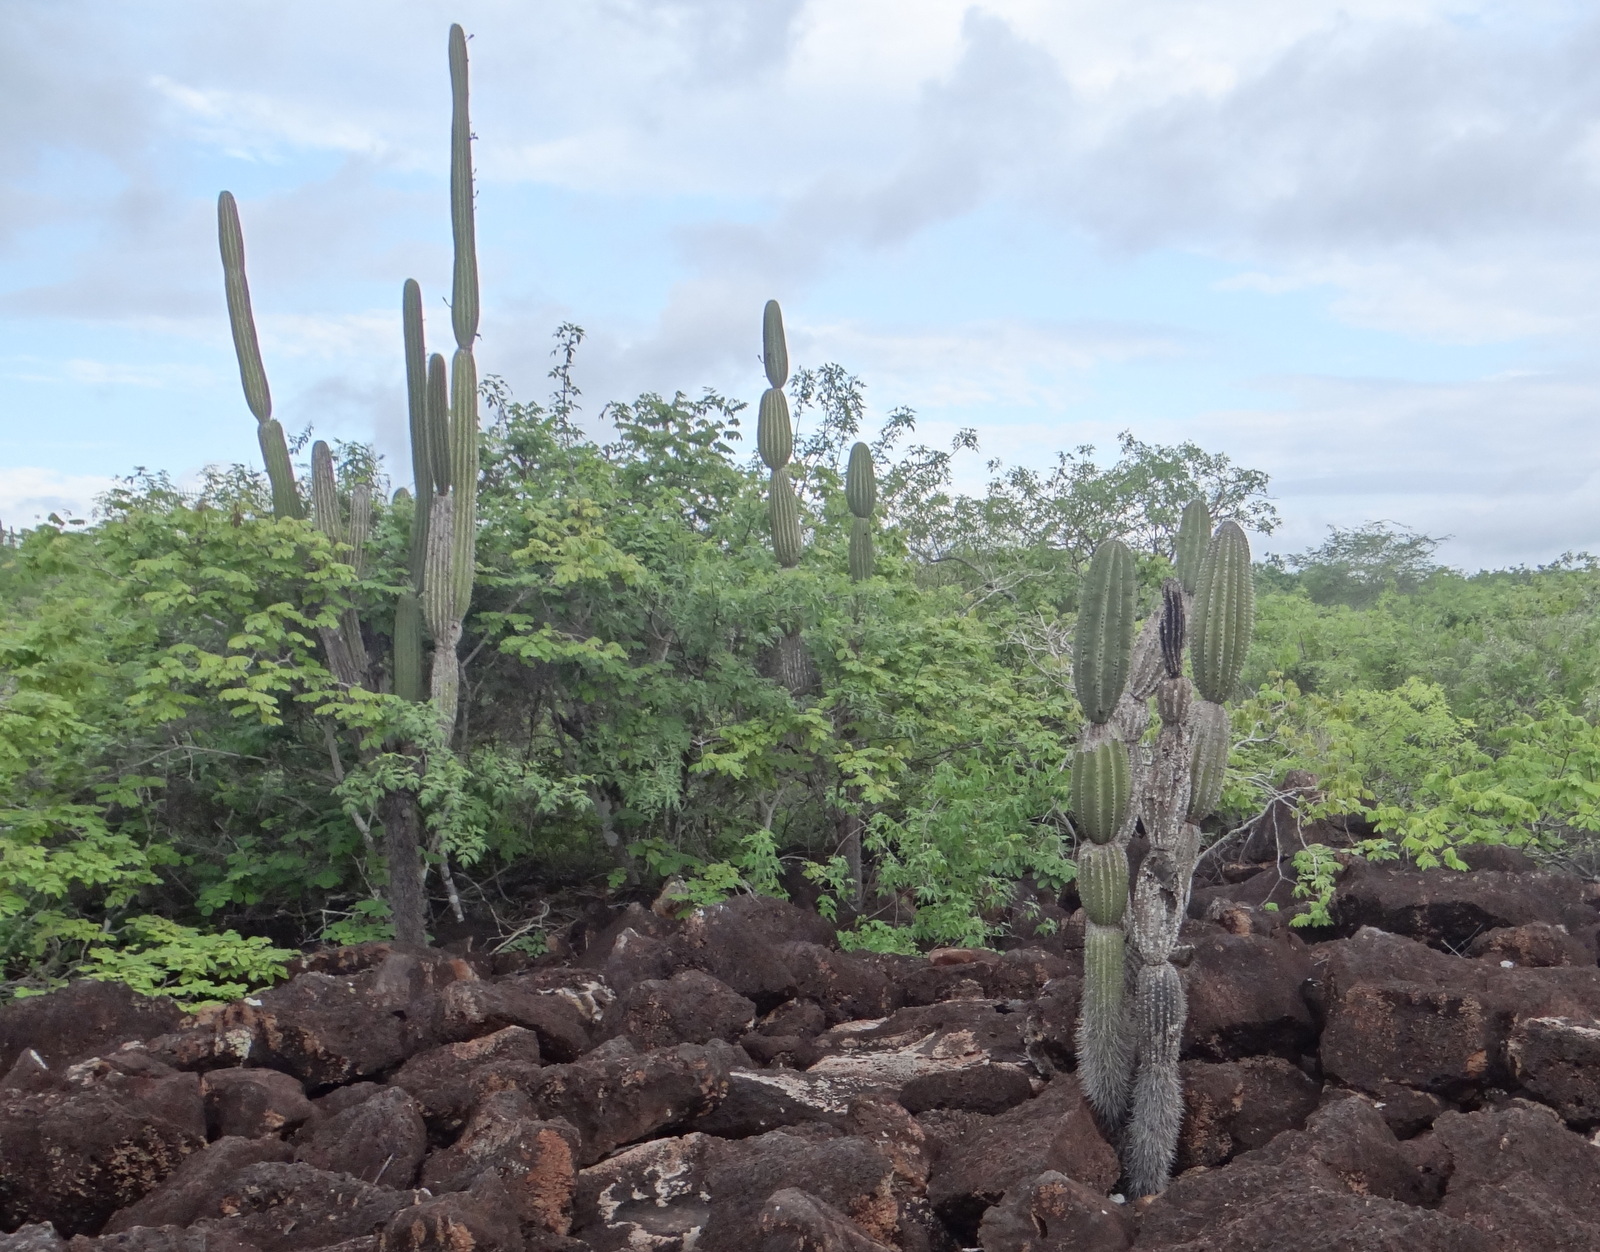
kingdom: Plantae
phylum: Tracheophyta
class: Magnoliopsida
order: Caryophyllales
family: Cactaceae
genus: Jasminocereus
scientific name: Jasminocereus thouarsii
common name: Candelabra cactus
